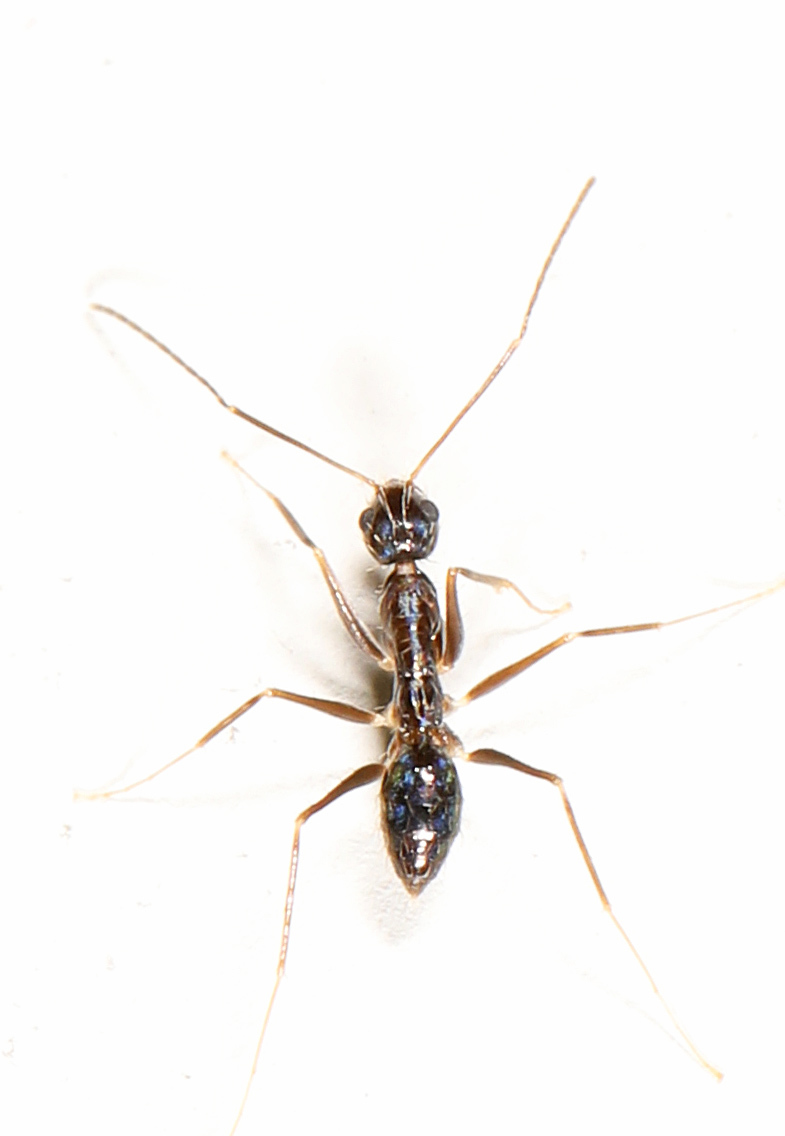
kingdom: Animalia
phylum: Arthropoda
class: Insecta
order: Hymenoptera
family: Formicidae
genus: Paratrechina
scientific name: Paratrechina longicornis
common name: Longhorned crazy ant
